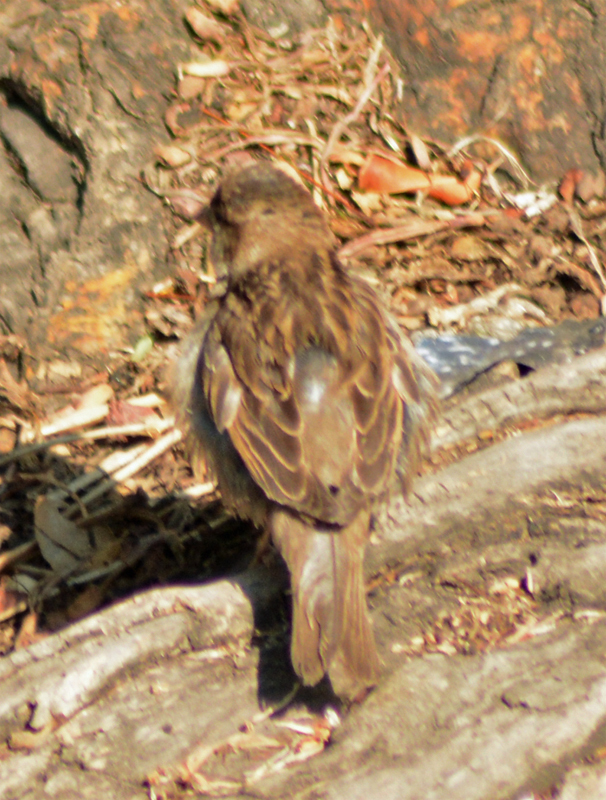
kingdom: Animalia
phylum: Chordata
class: Aves
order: Passeriformes
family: Passeridae
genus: Passer
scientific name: Passer domesticus
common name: House sparrow
